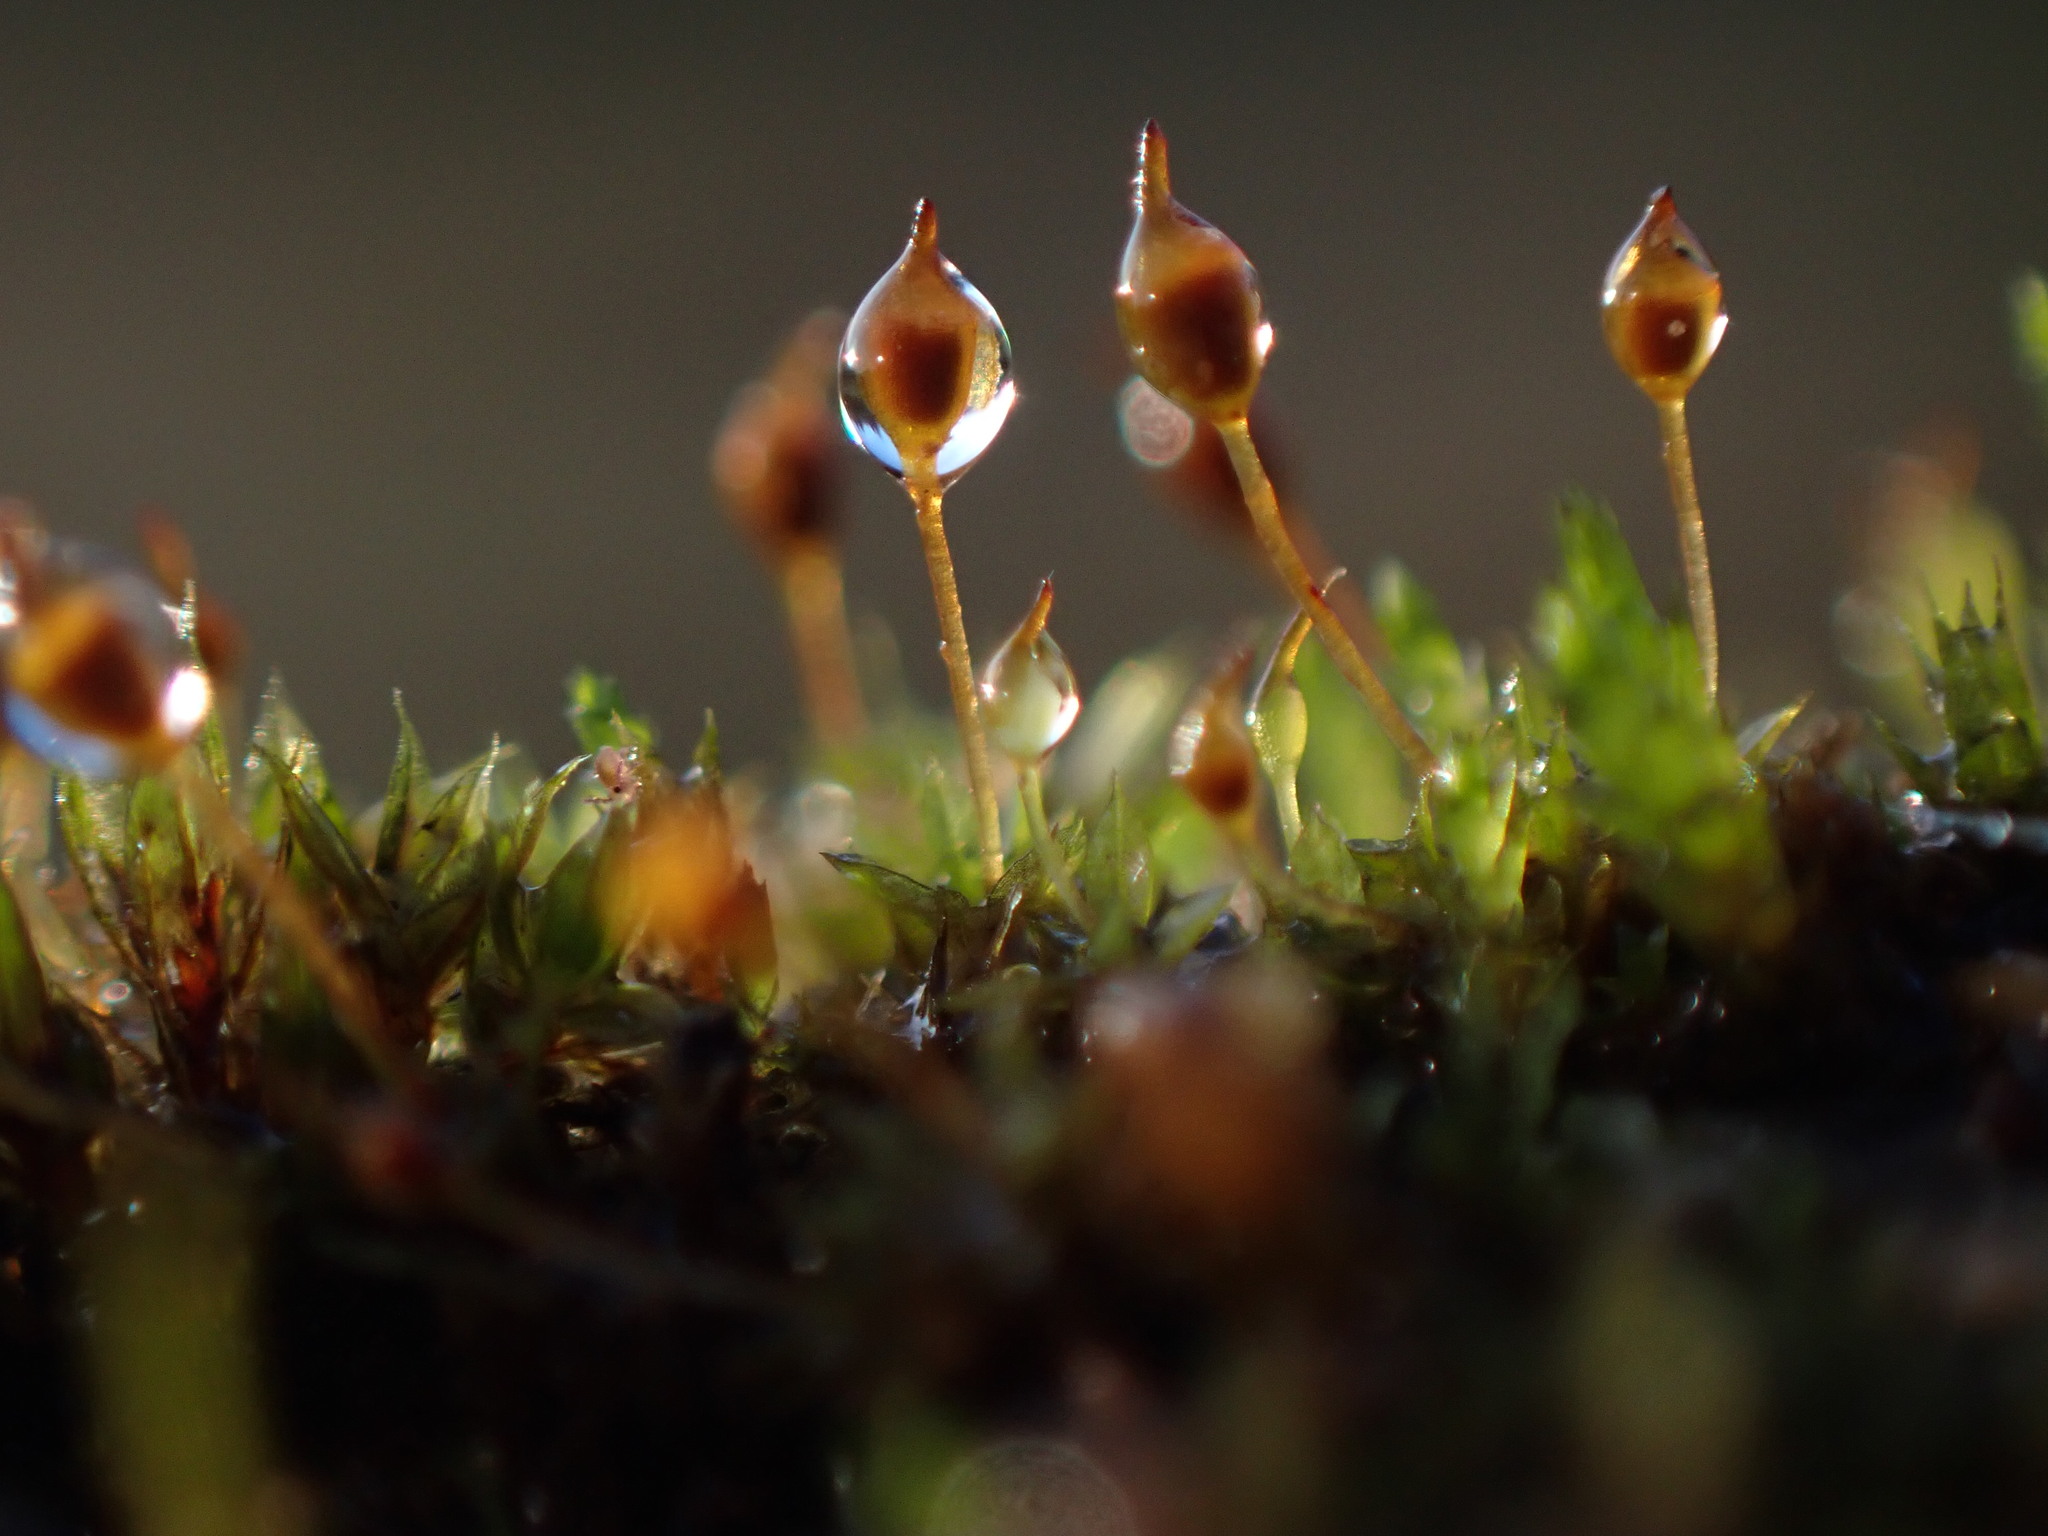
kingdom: Plantae
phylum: Bryophyta
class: Bryopsida
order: Pottiales
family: Pottiaceae
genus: Tortula
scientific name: Tortula truncata
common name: Truncated screw moss
